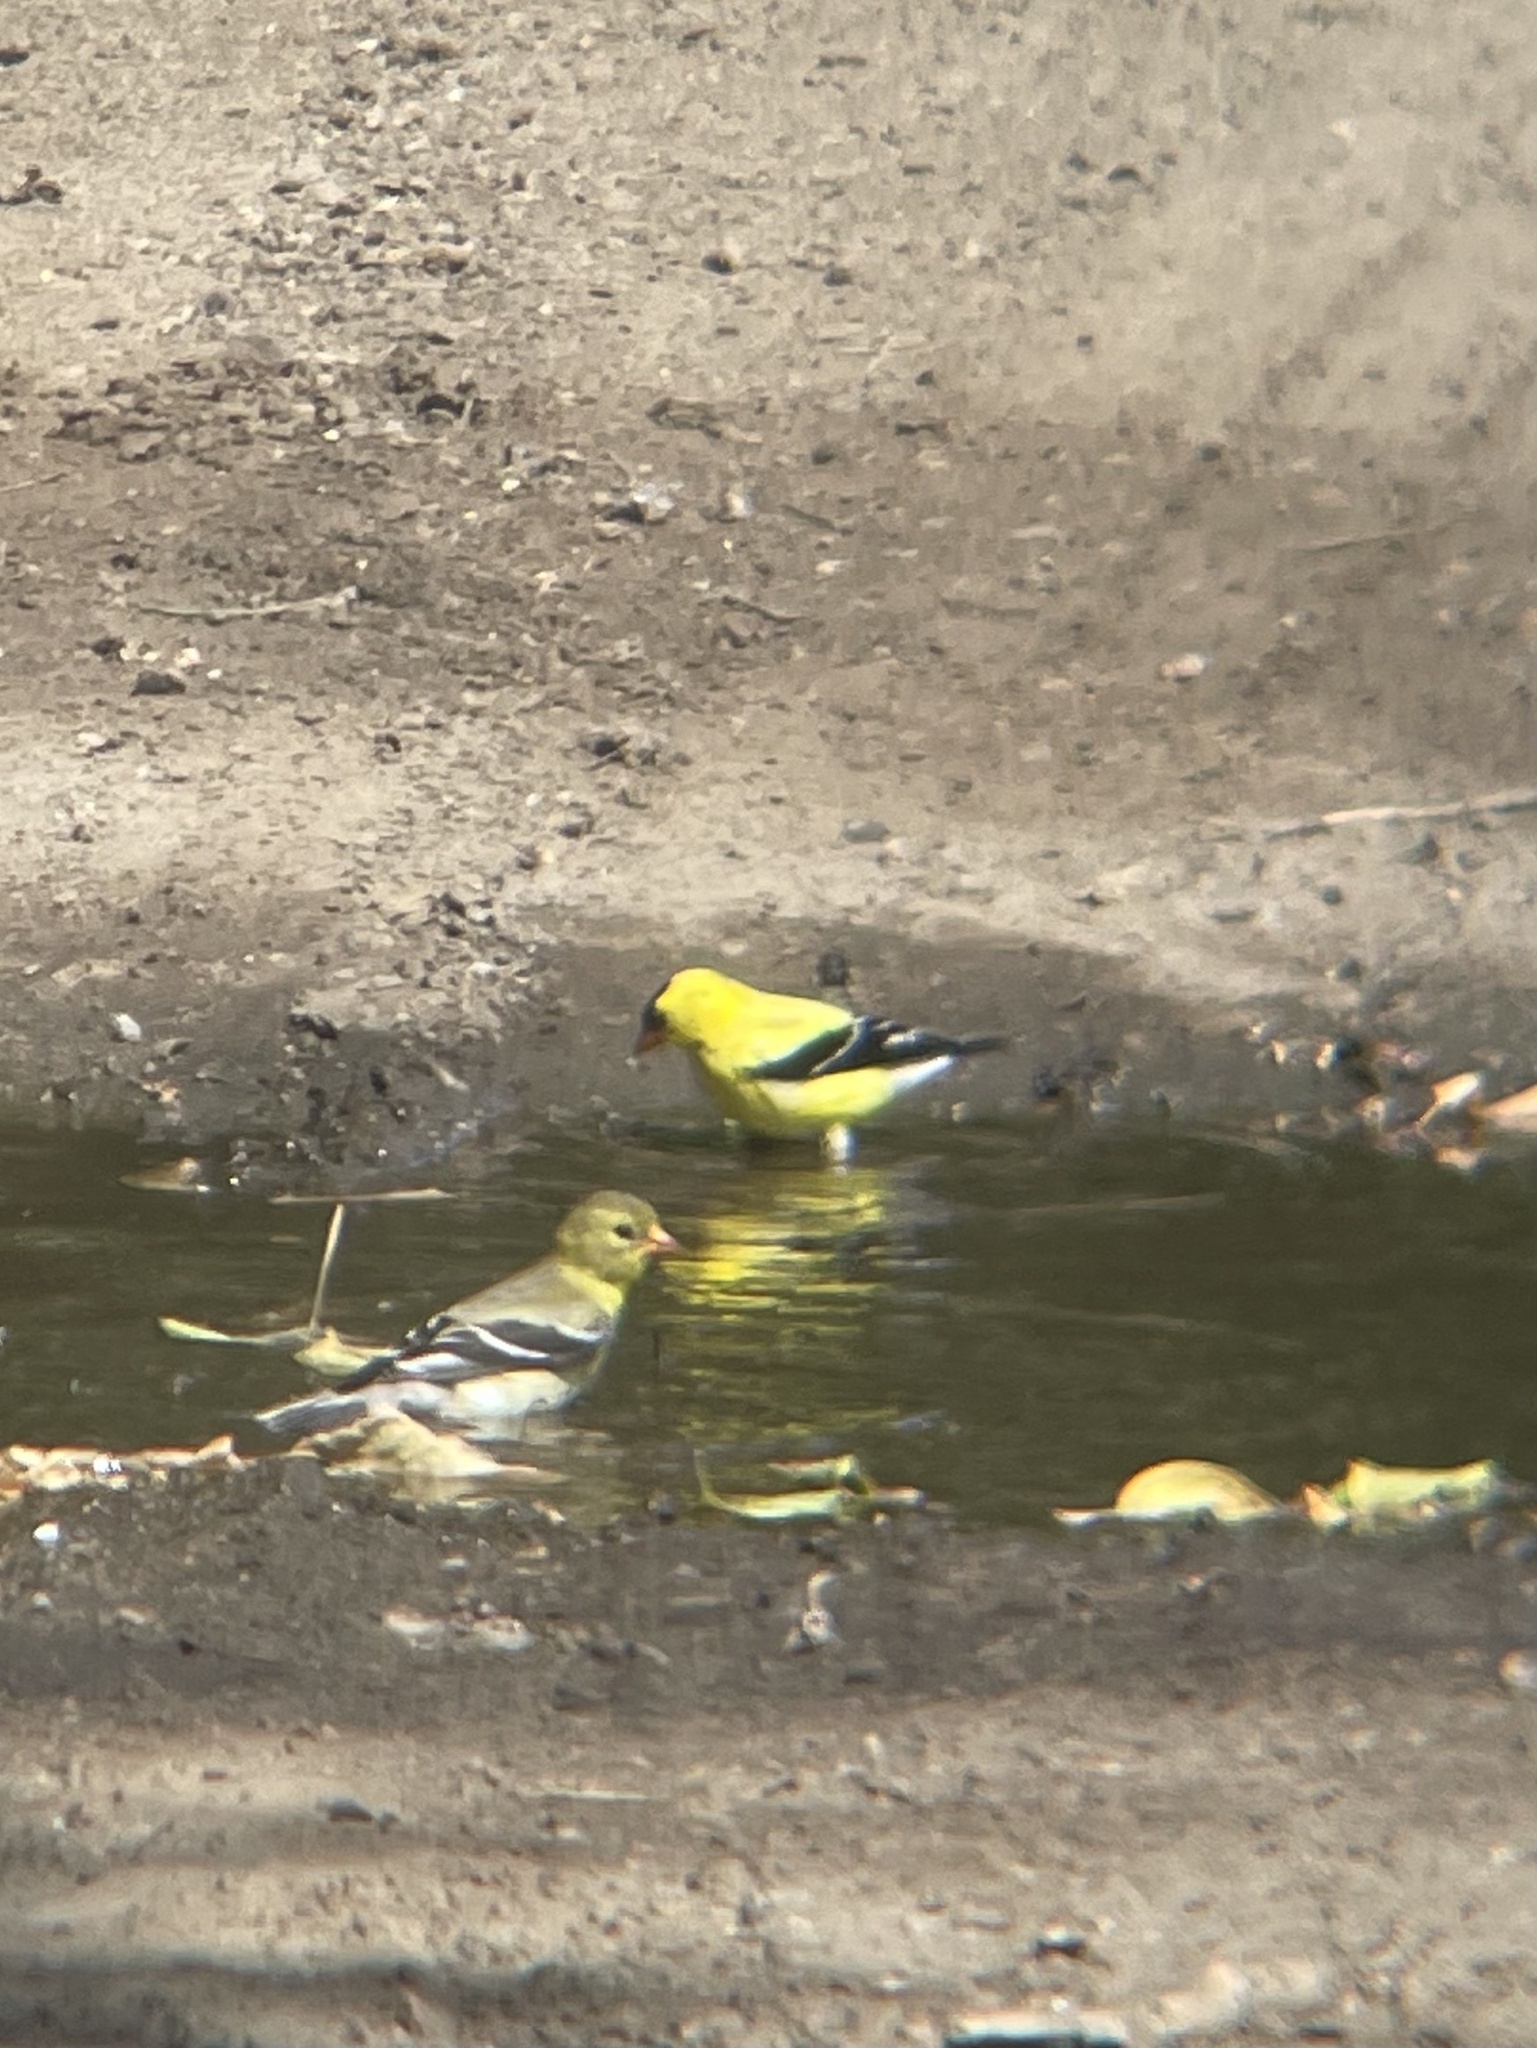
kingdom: Animalia
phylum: Chordata
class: Aves
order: Passeriformes
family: Fringillidae
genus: Spinus
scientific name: Spinus tristis
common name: American goldfinch
